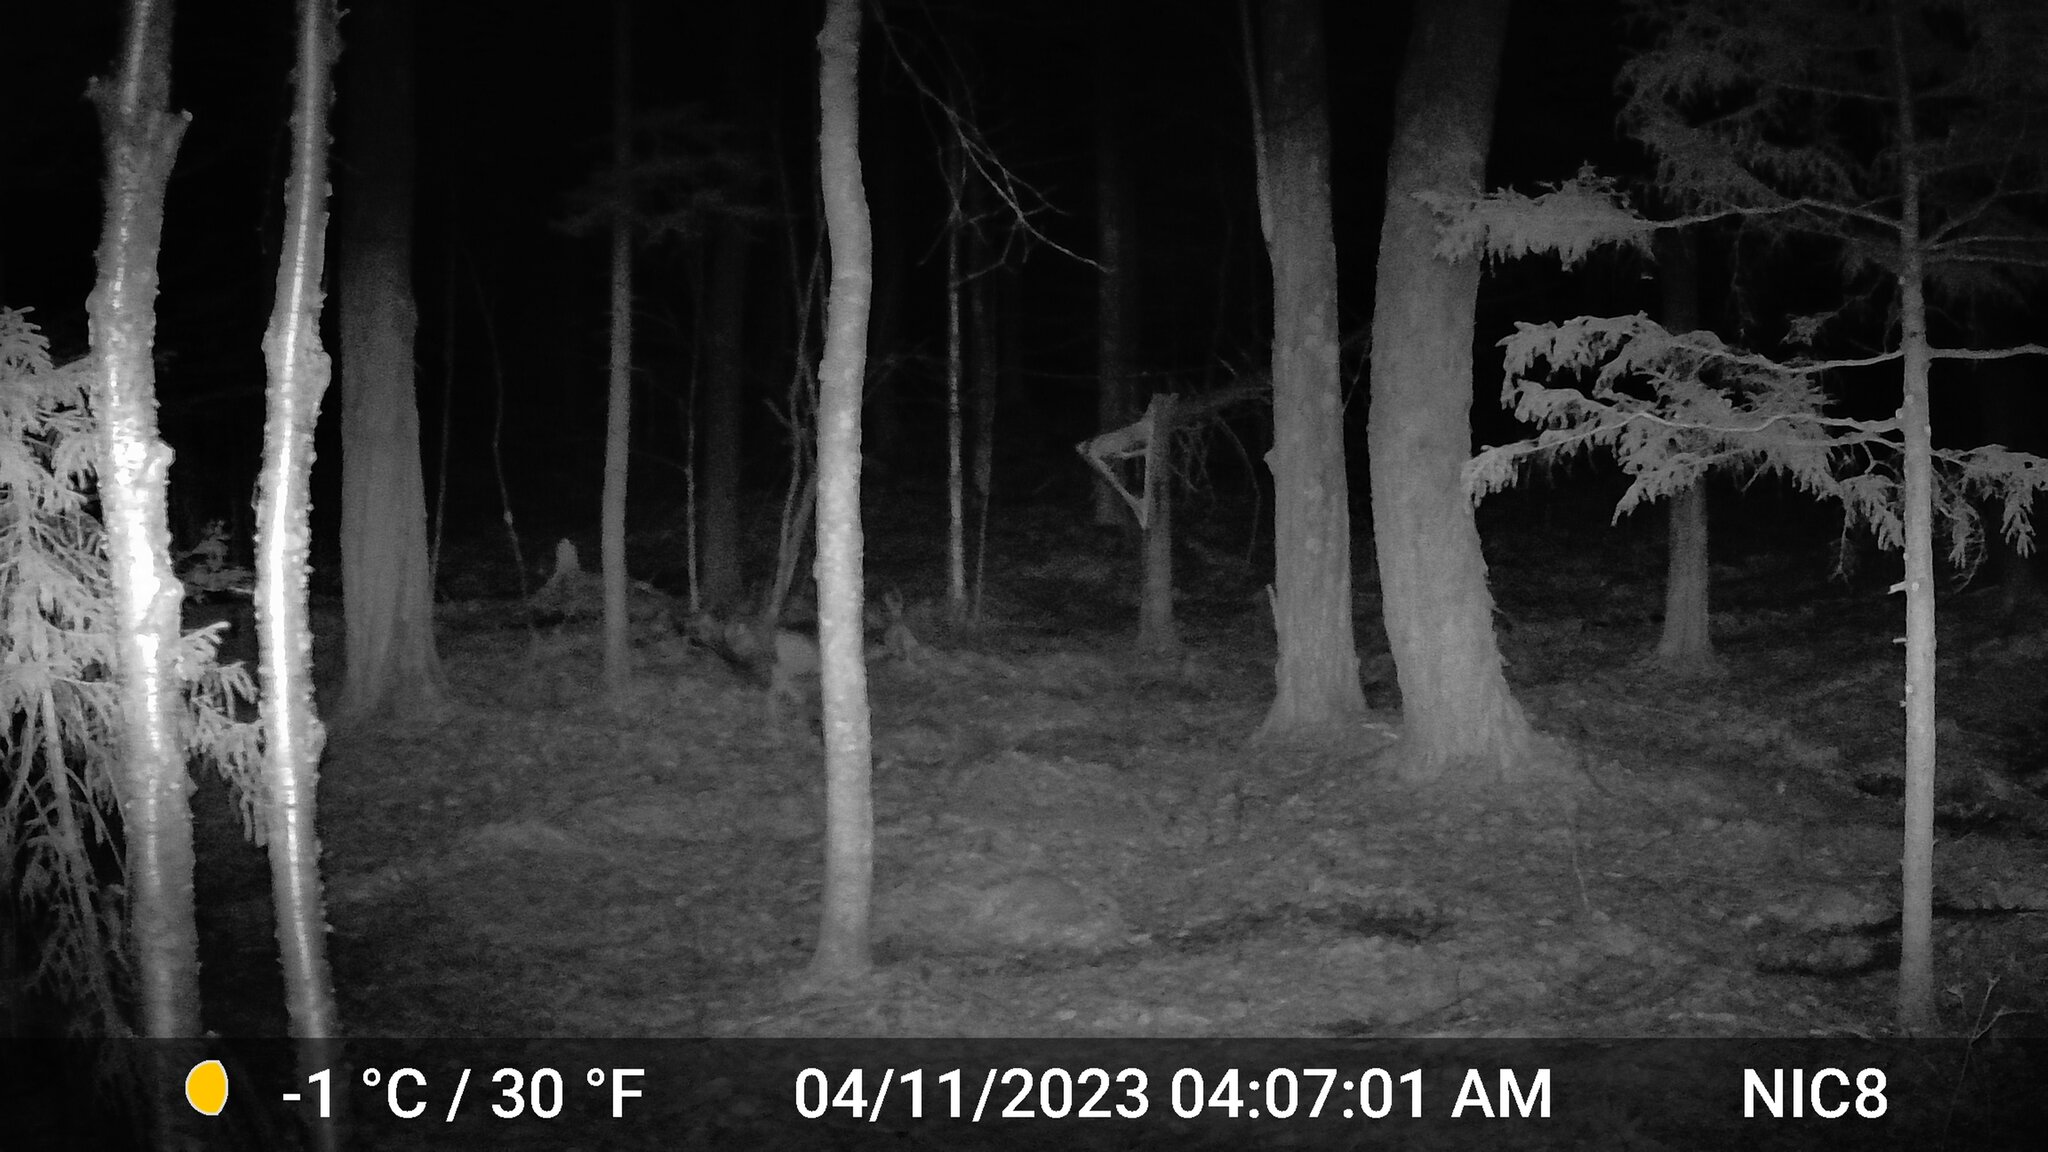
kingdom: Animalia
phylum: Chordata
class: Mammalia
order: Artiodactyla
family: Cervidae
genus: Odocoileus
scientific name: Odocoileus virginianus
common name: White-tailed deer
